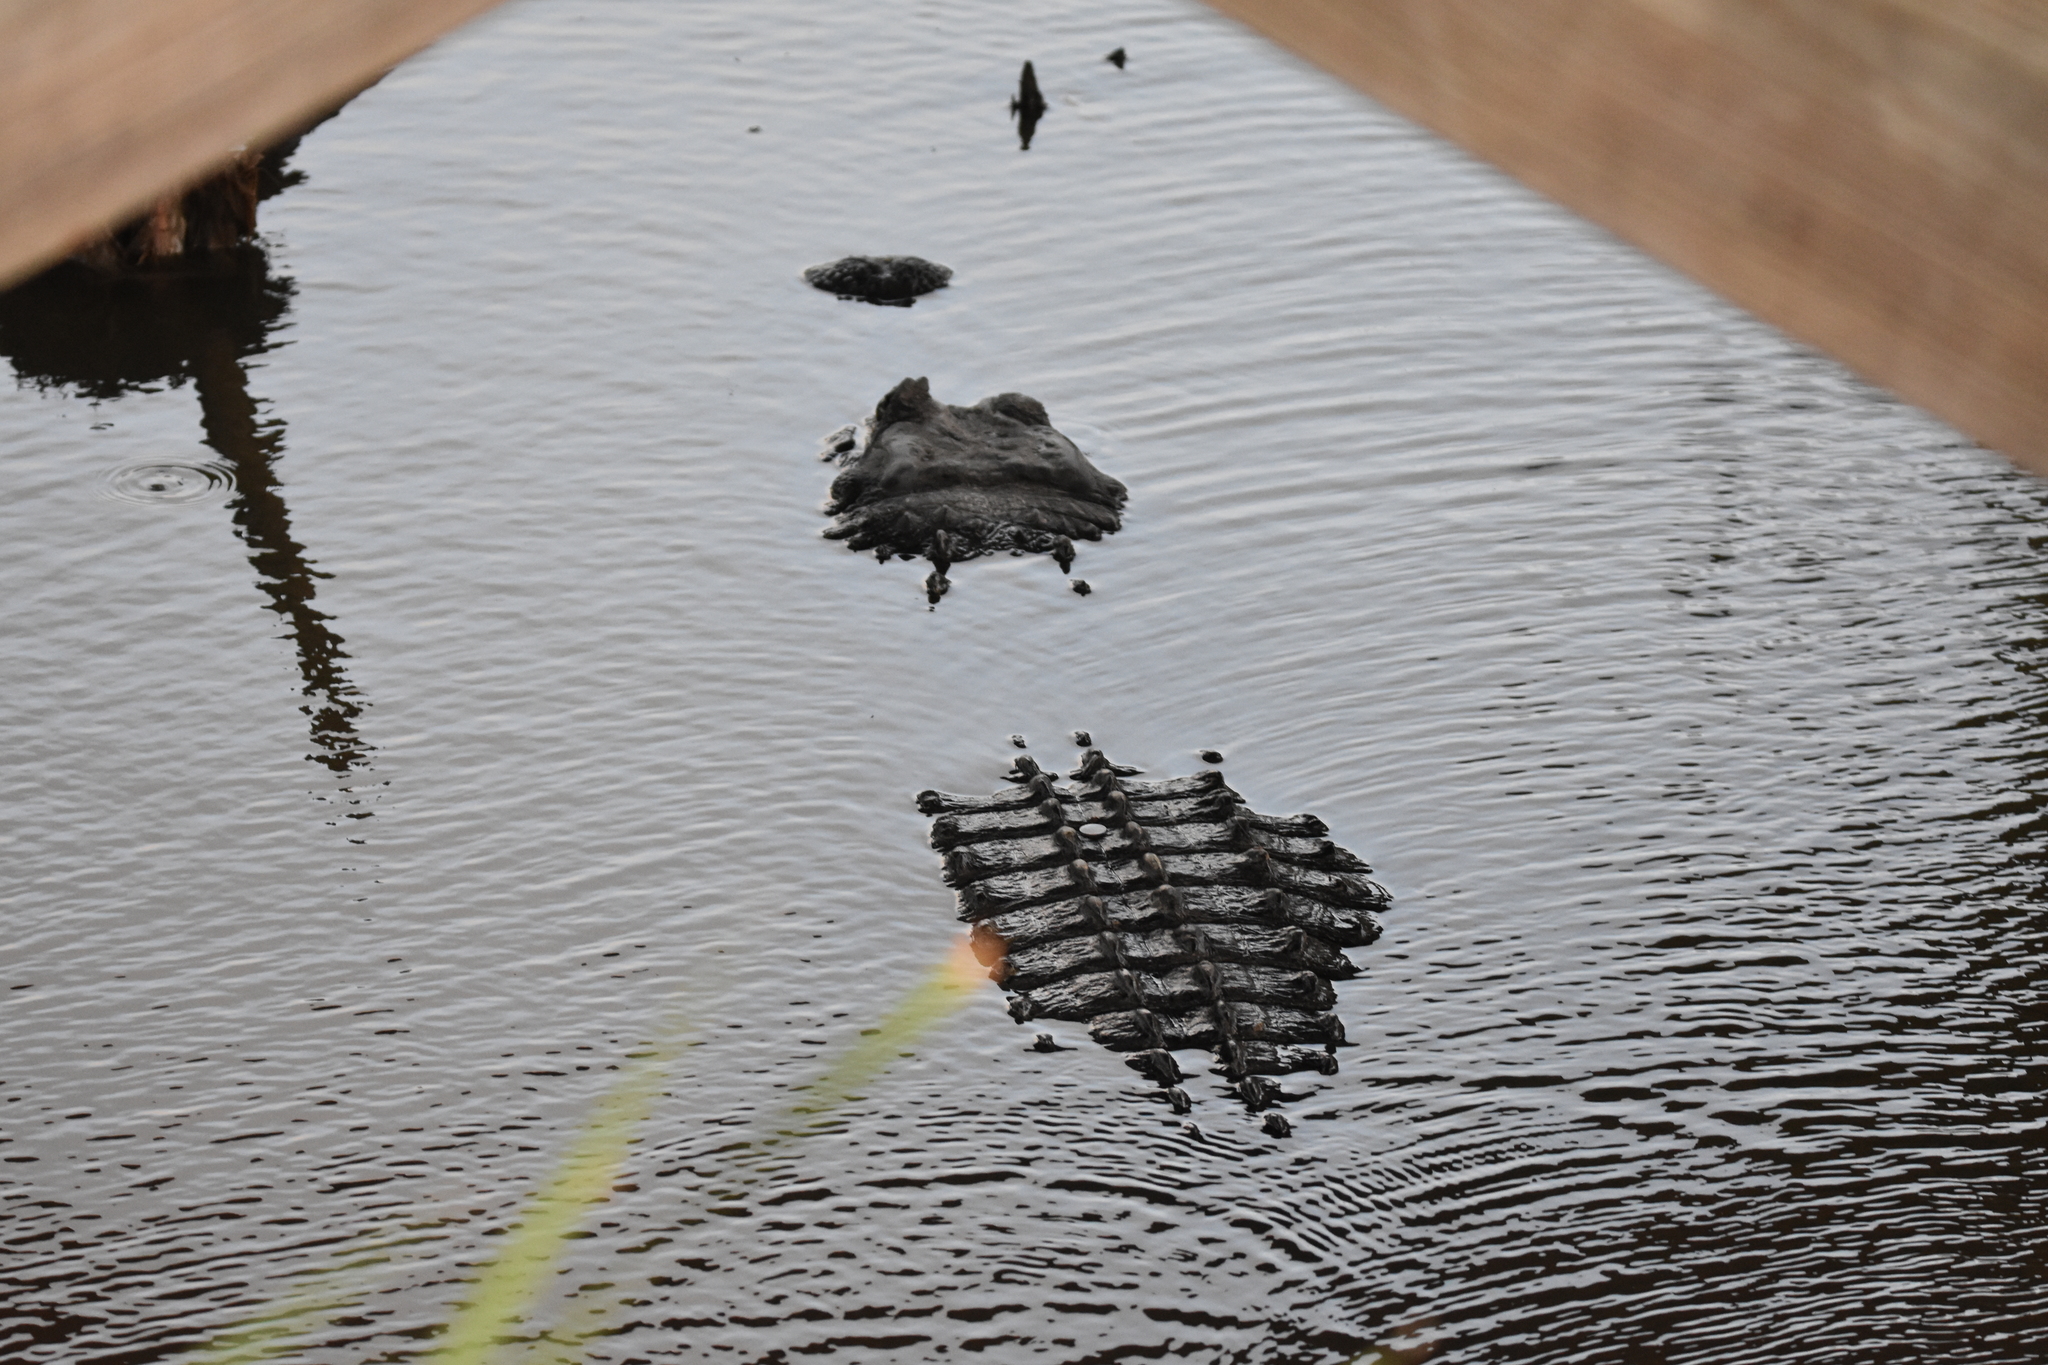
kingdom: Animalia
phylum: Chordata
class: Crocodylia
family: Alligatoridae
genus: Alligator
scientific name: Alligator mississippiensis
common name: American alligator
